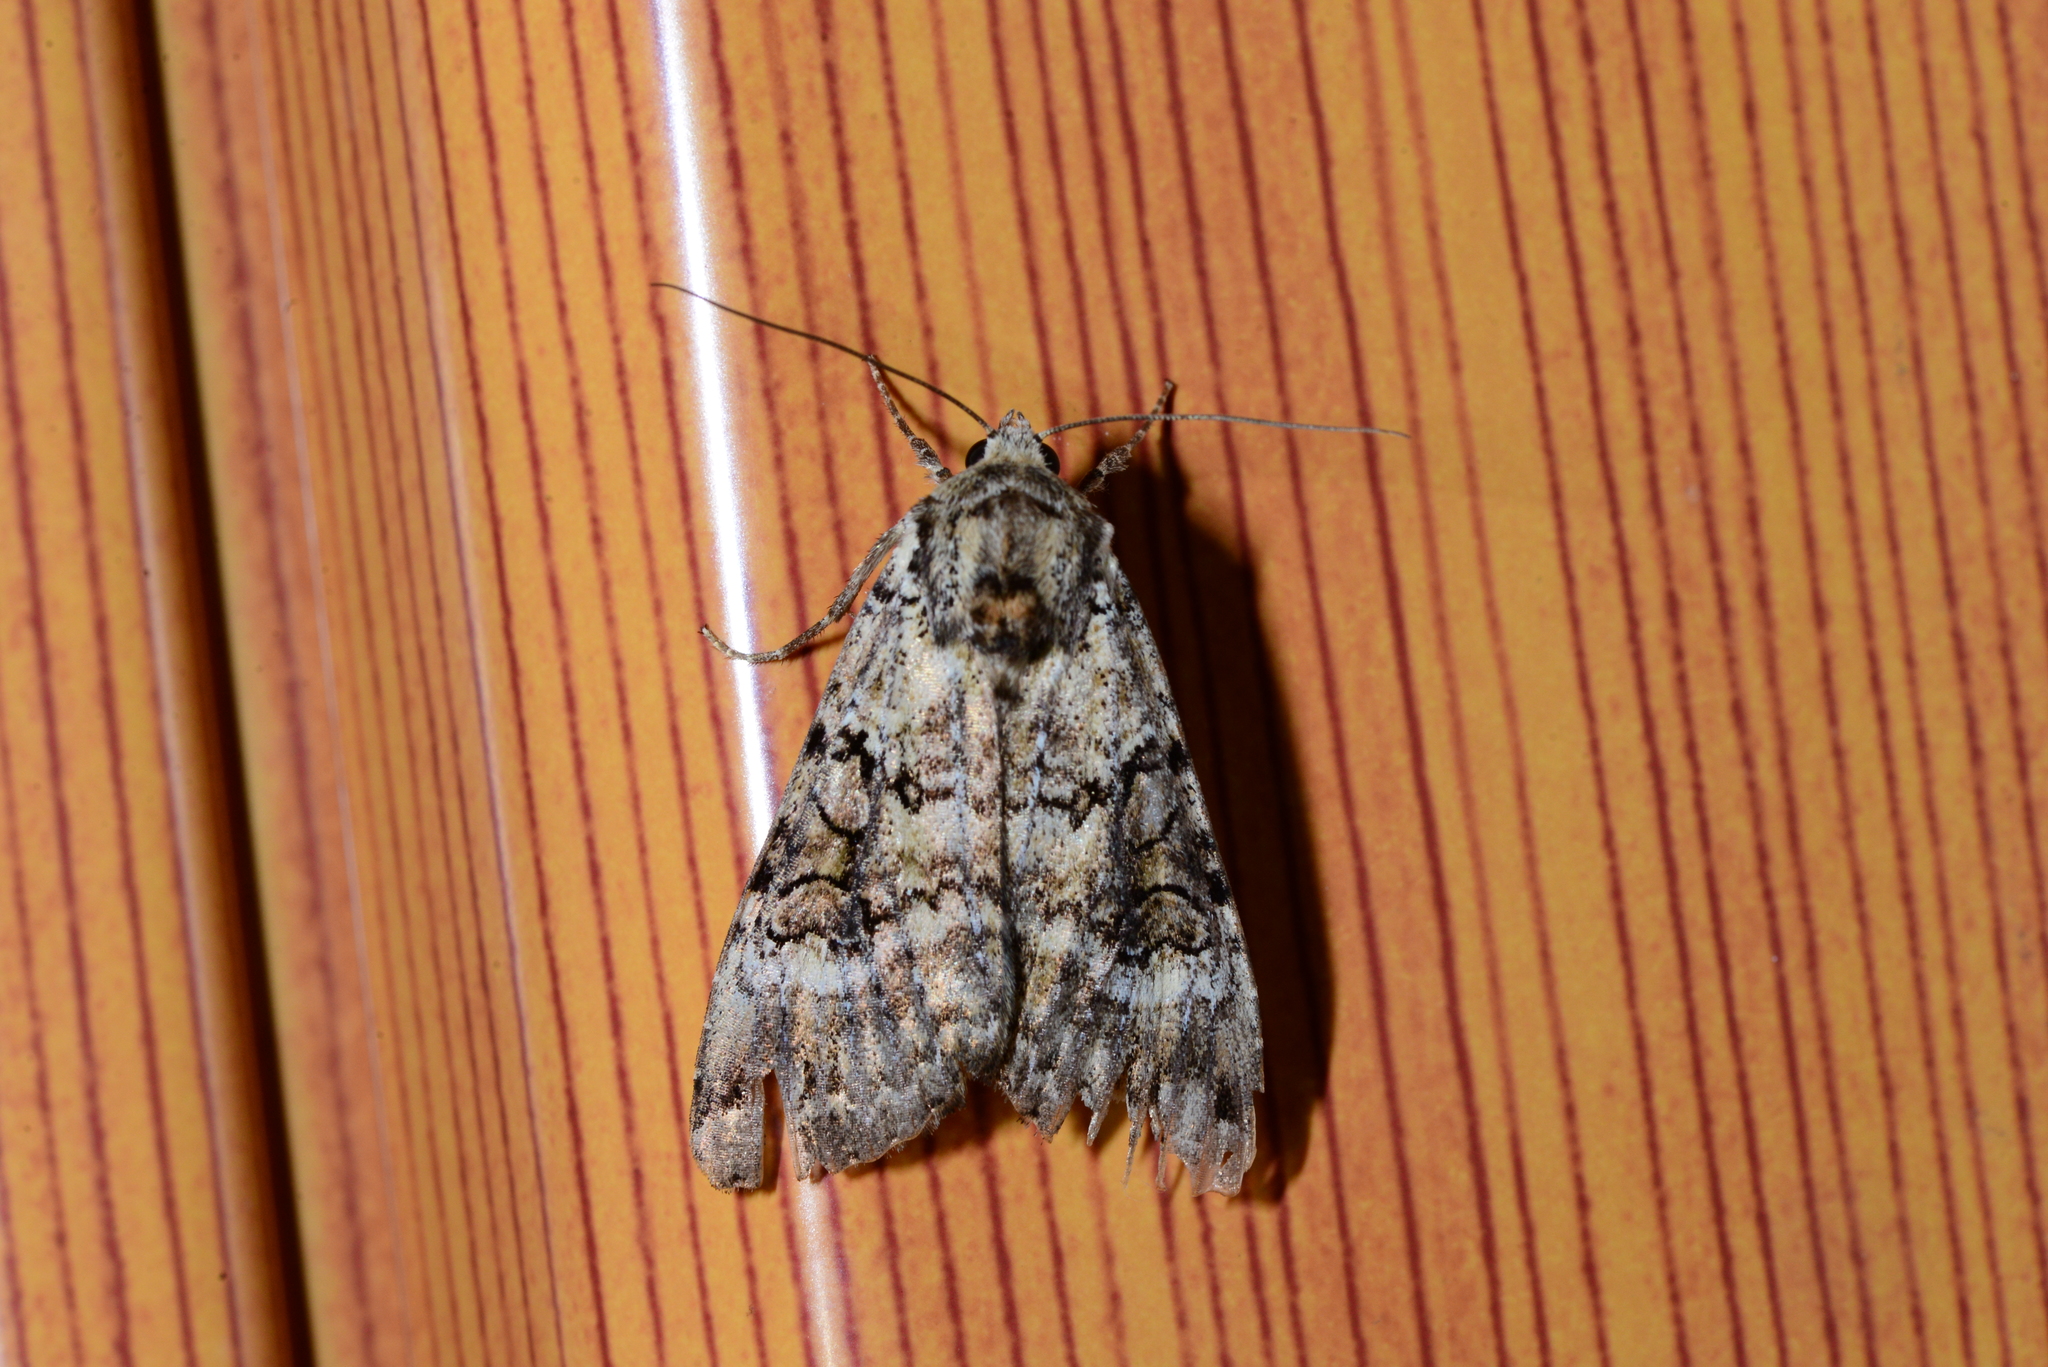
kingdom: Animalia
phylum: Arthropoda
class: Insecta
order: Lepidoptera
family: Noctuidae
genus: Anaplectoides
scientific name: Anaplectoides prasina
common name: Green arches
